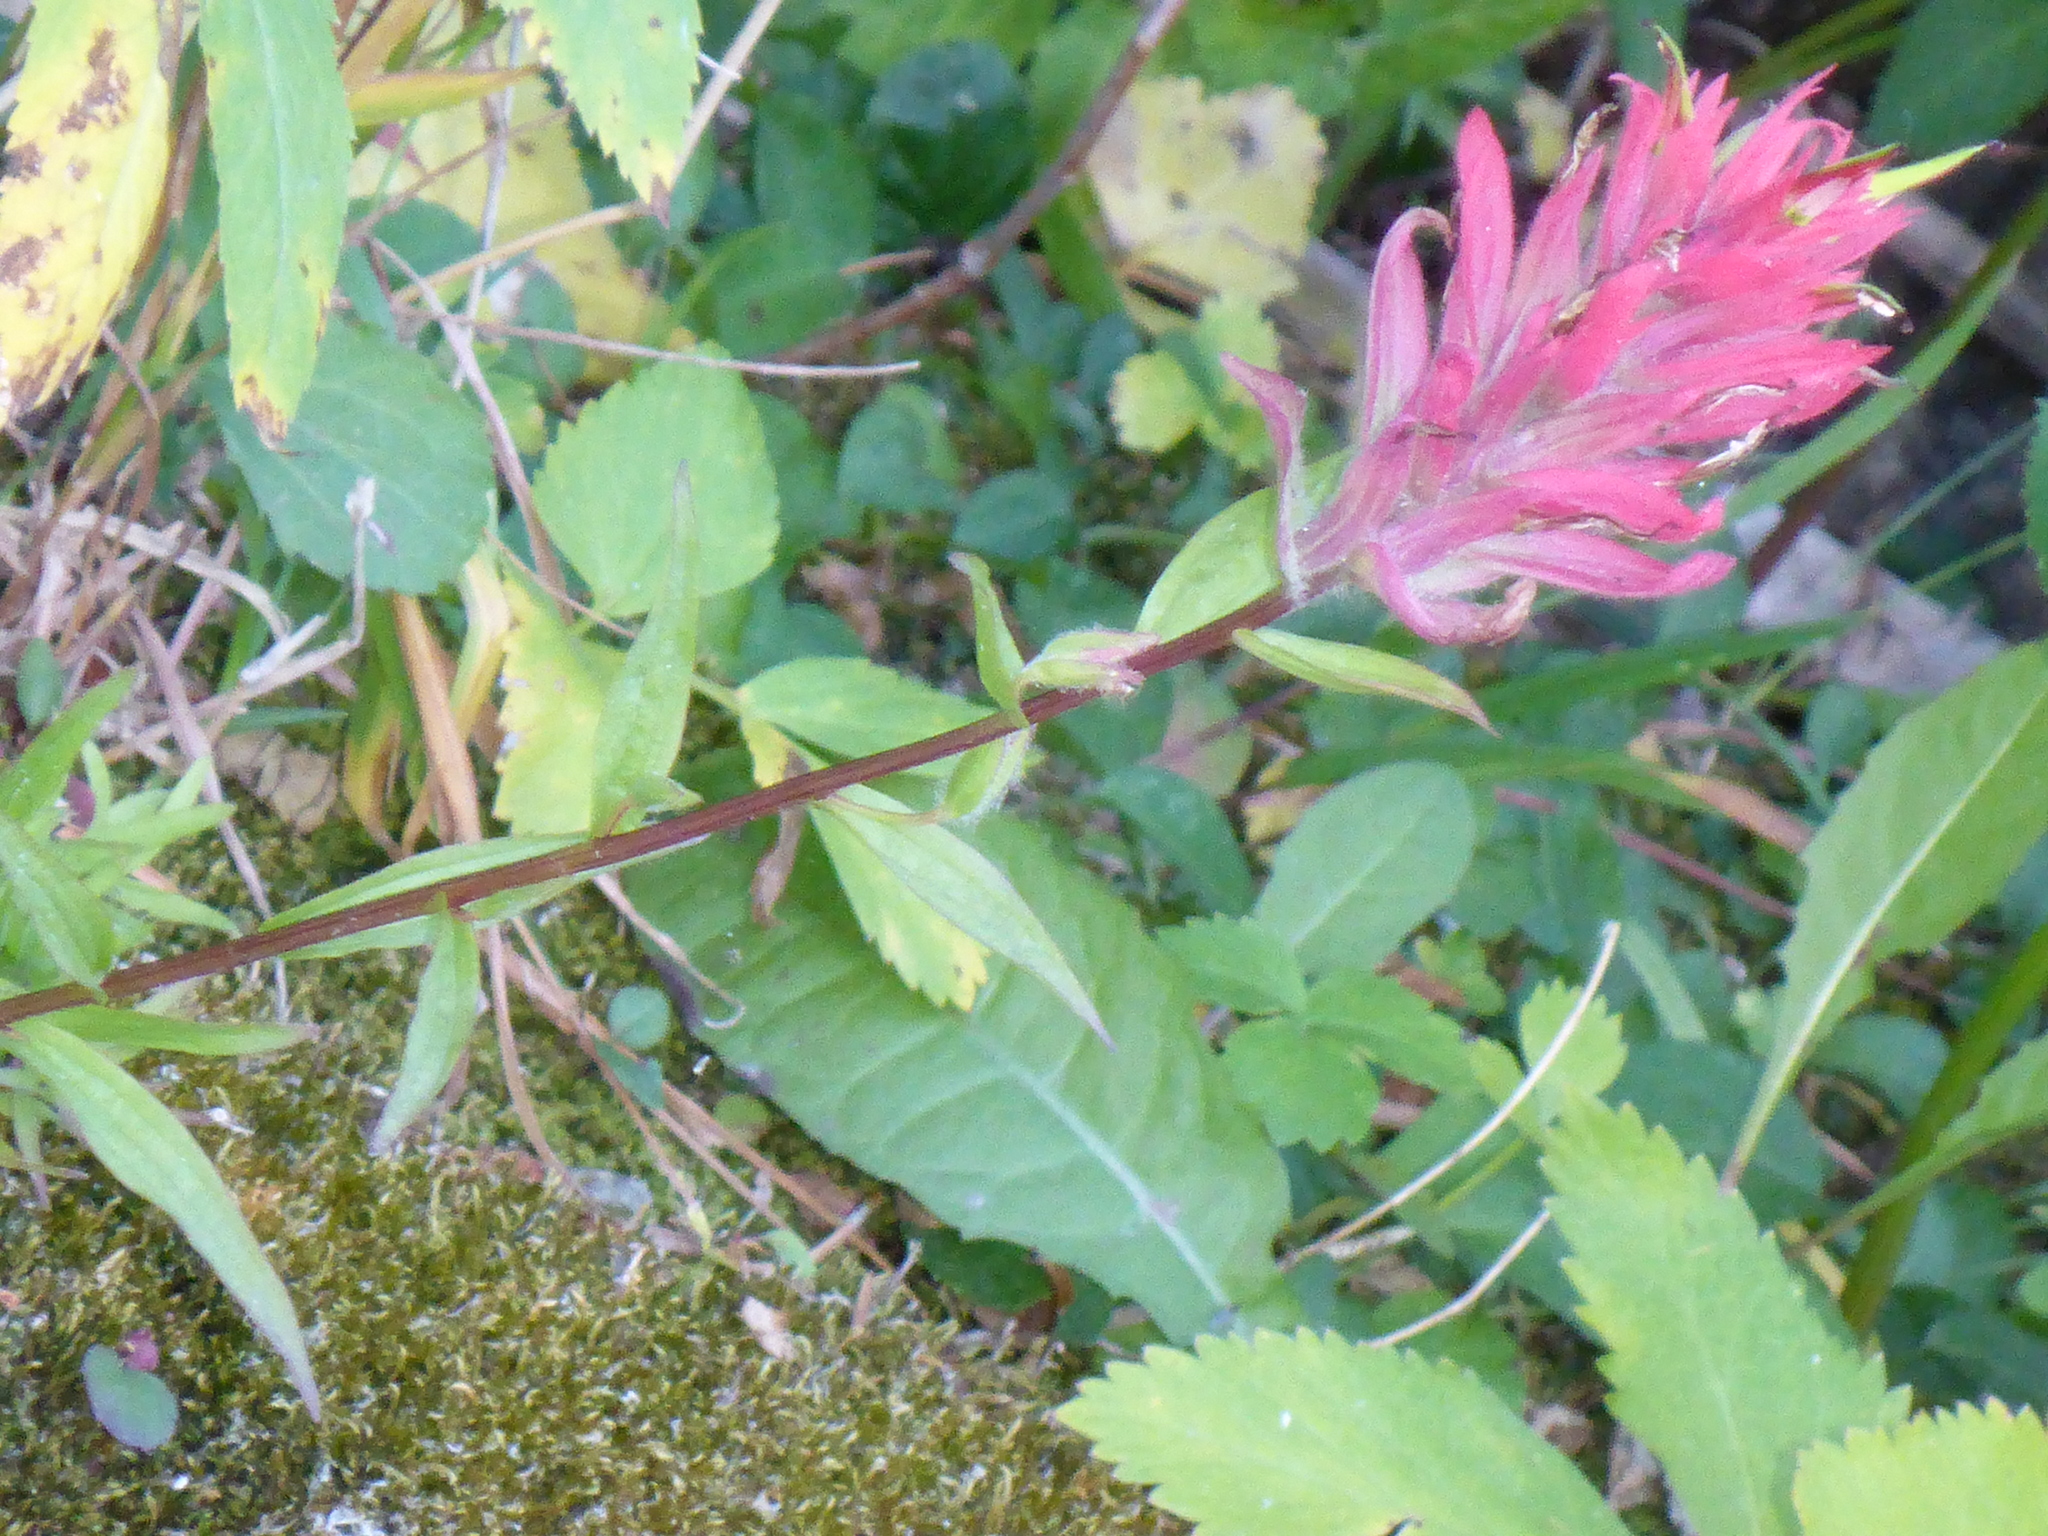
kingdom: Plantae
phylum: Tracheophyta
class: Magnoliopsida
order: Lamiales
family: Orobanchaceae
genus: Castilleja
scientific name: Castilleja miniata
